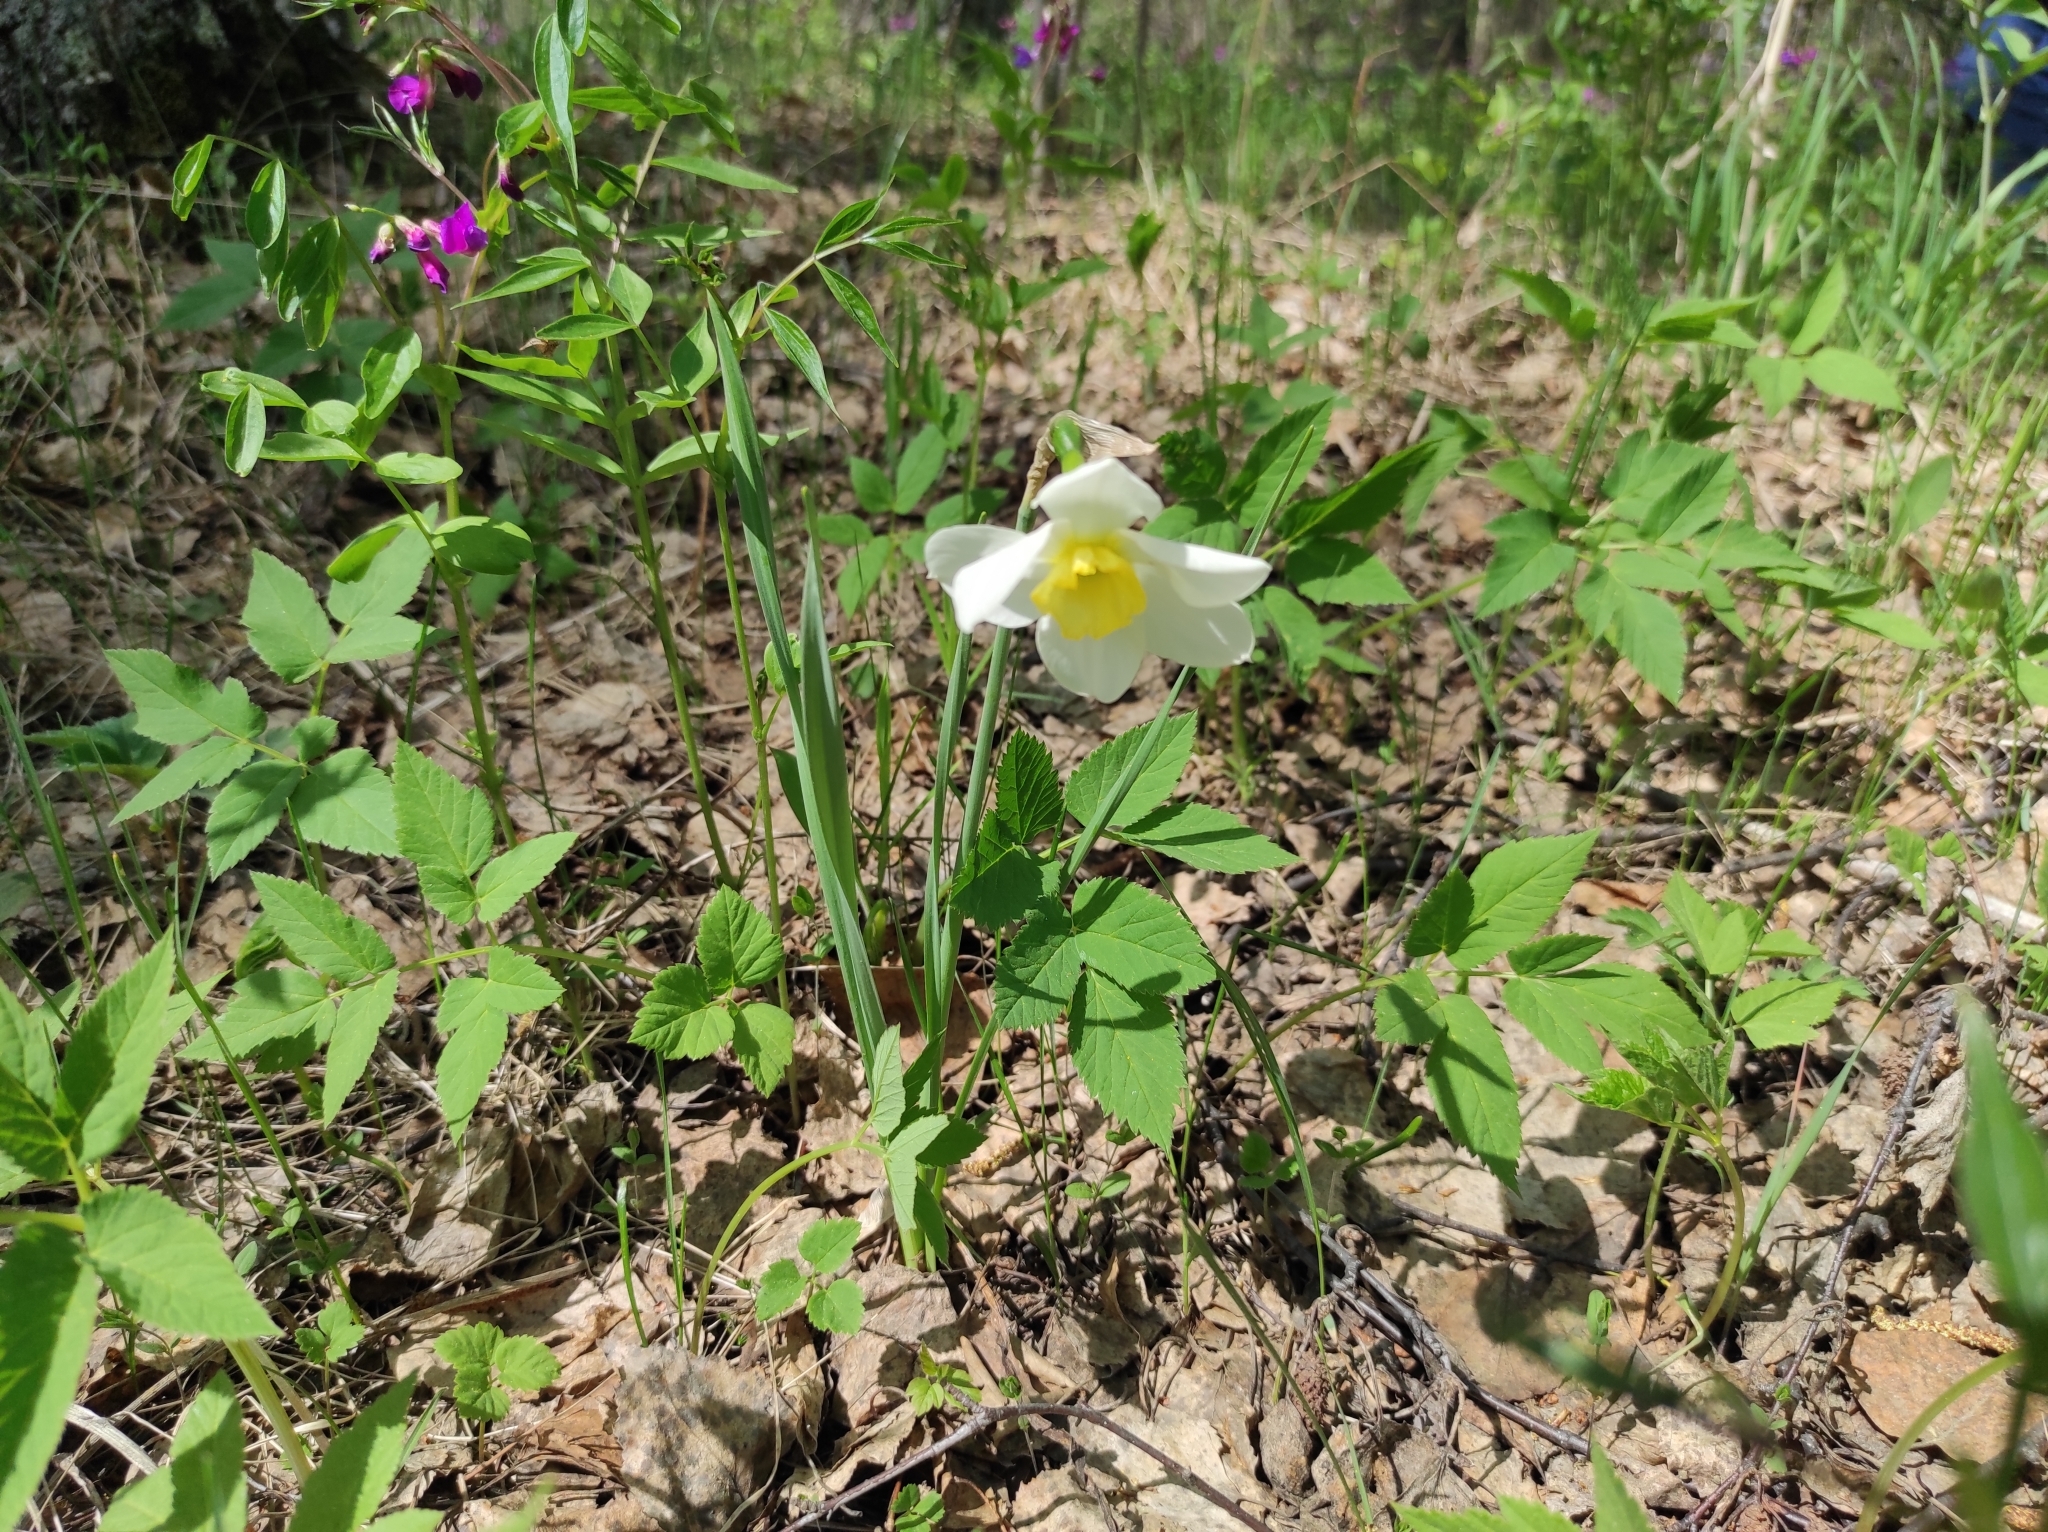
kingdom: Plantae
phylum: Tracheophyta
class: Magnoliopsida
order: Fabales
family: Fabaceae
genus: Lathyrus
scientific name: Lathyrus vernus
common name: Spring pea
